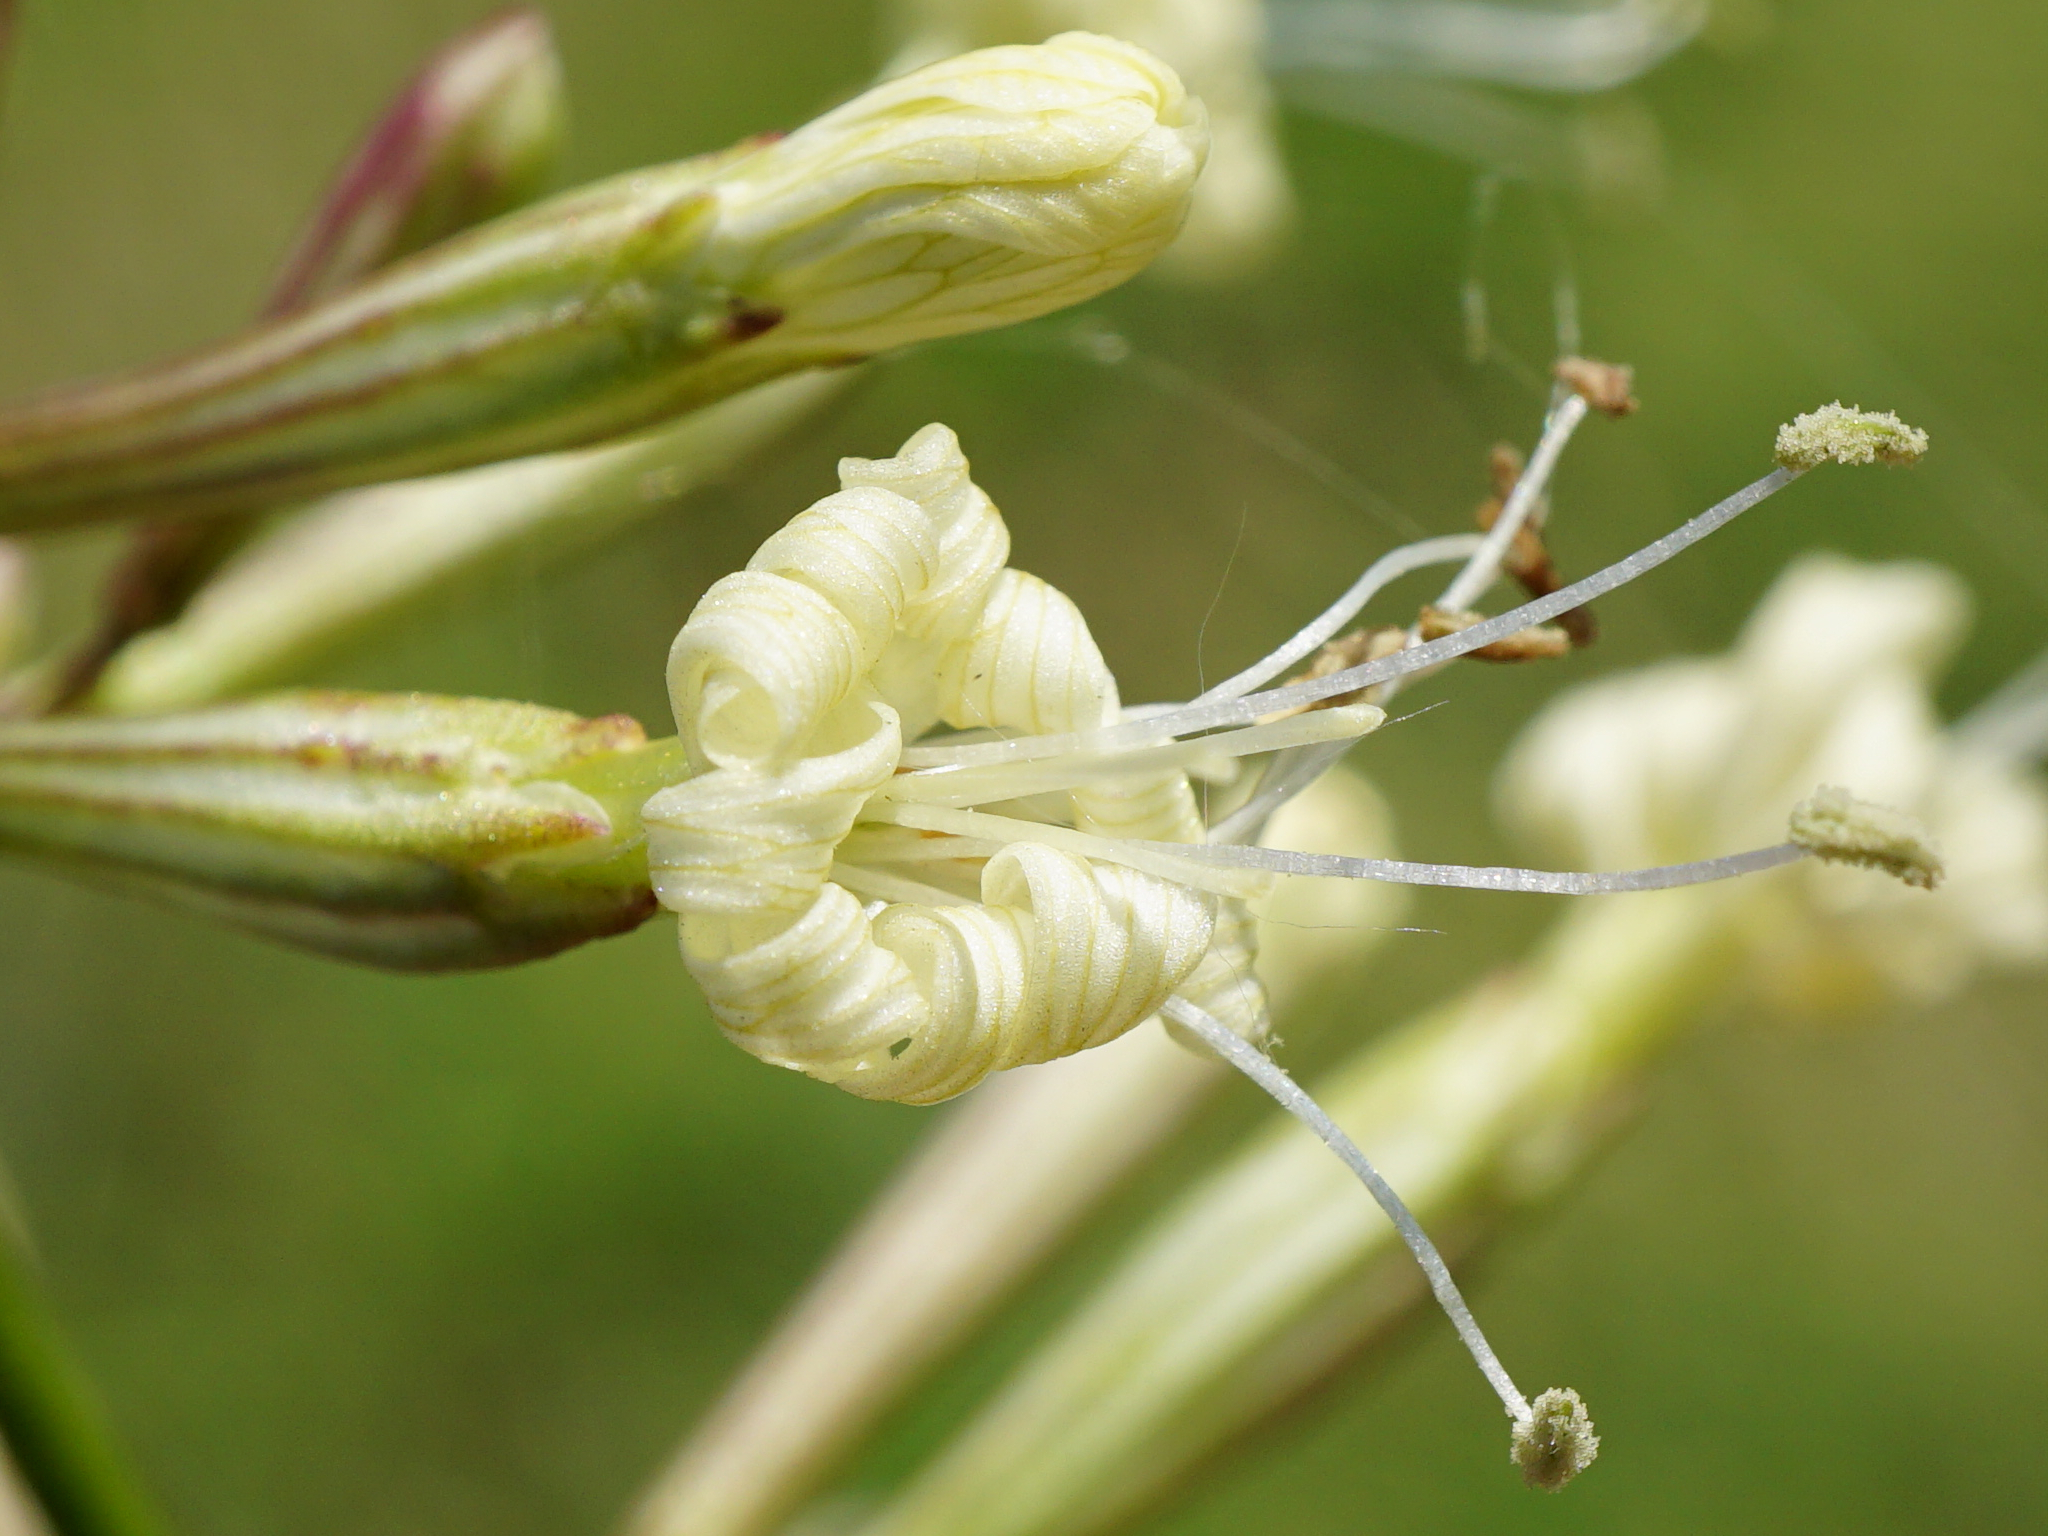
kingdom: Plantae
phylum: Tracheophyta
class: Magnoliopsida
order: Caryophyllales
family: Caryophyllaceae
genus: Silene
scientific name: Silene multiflora
